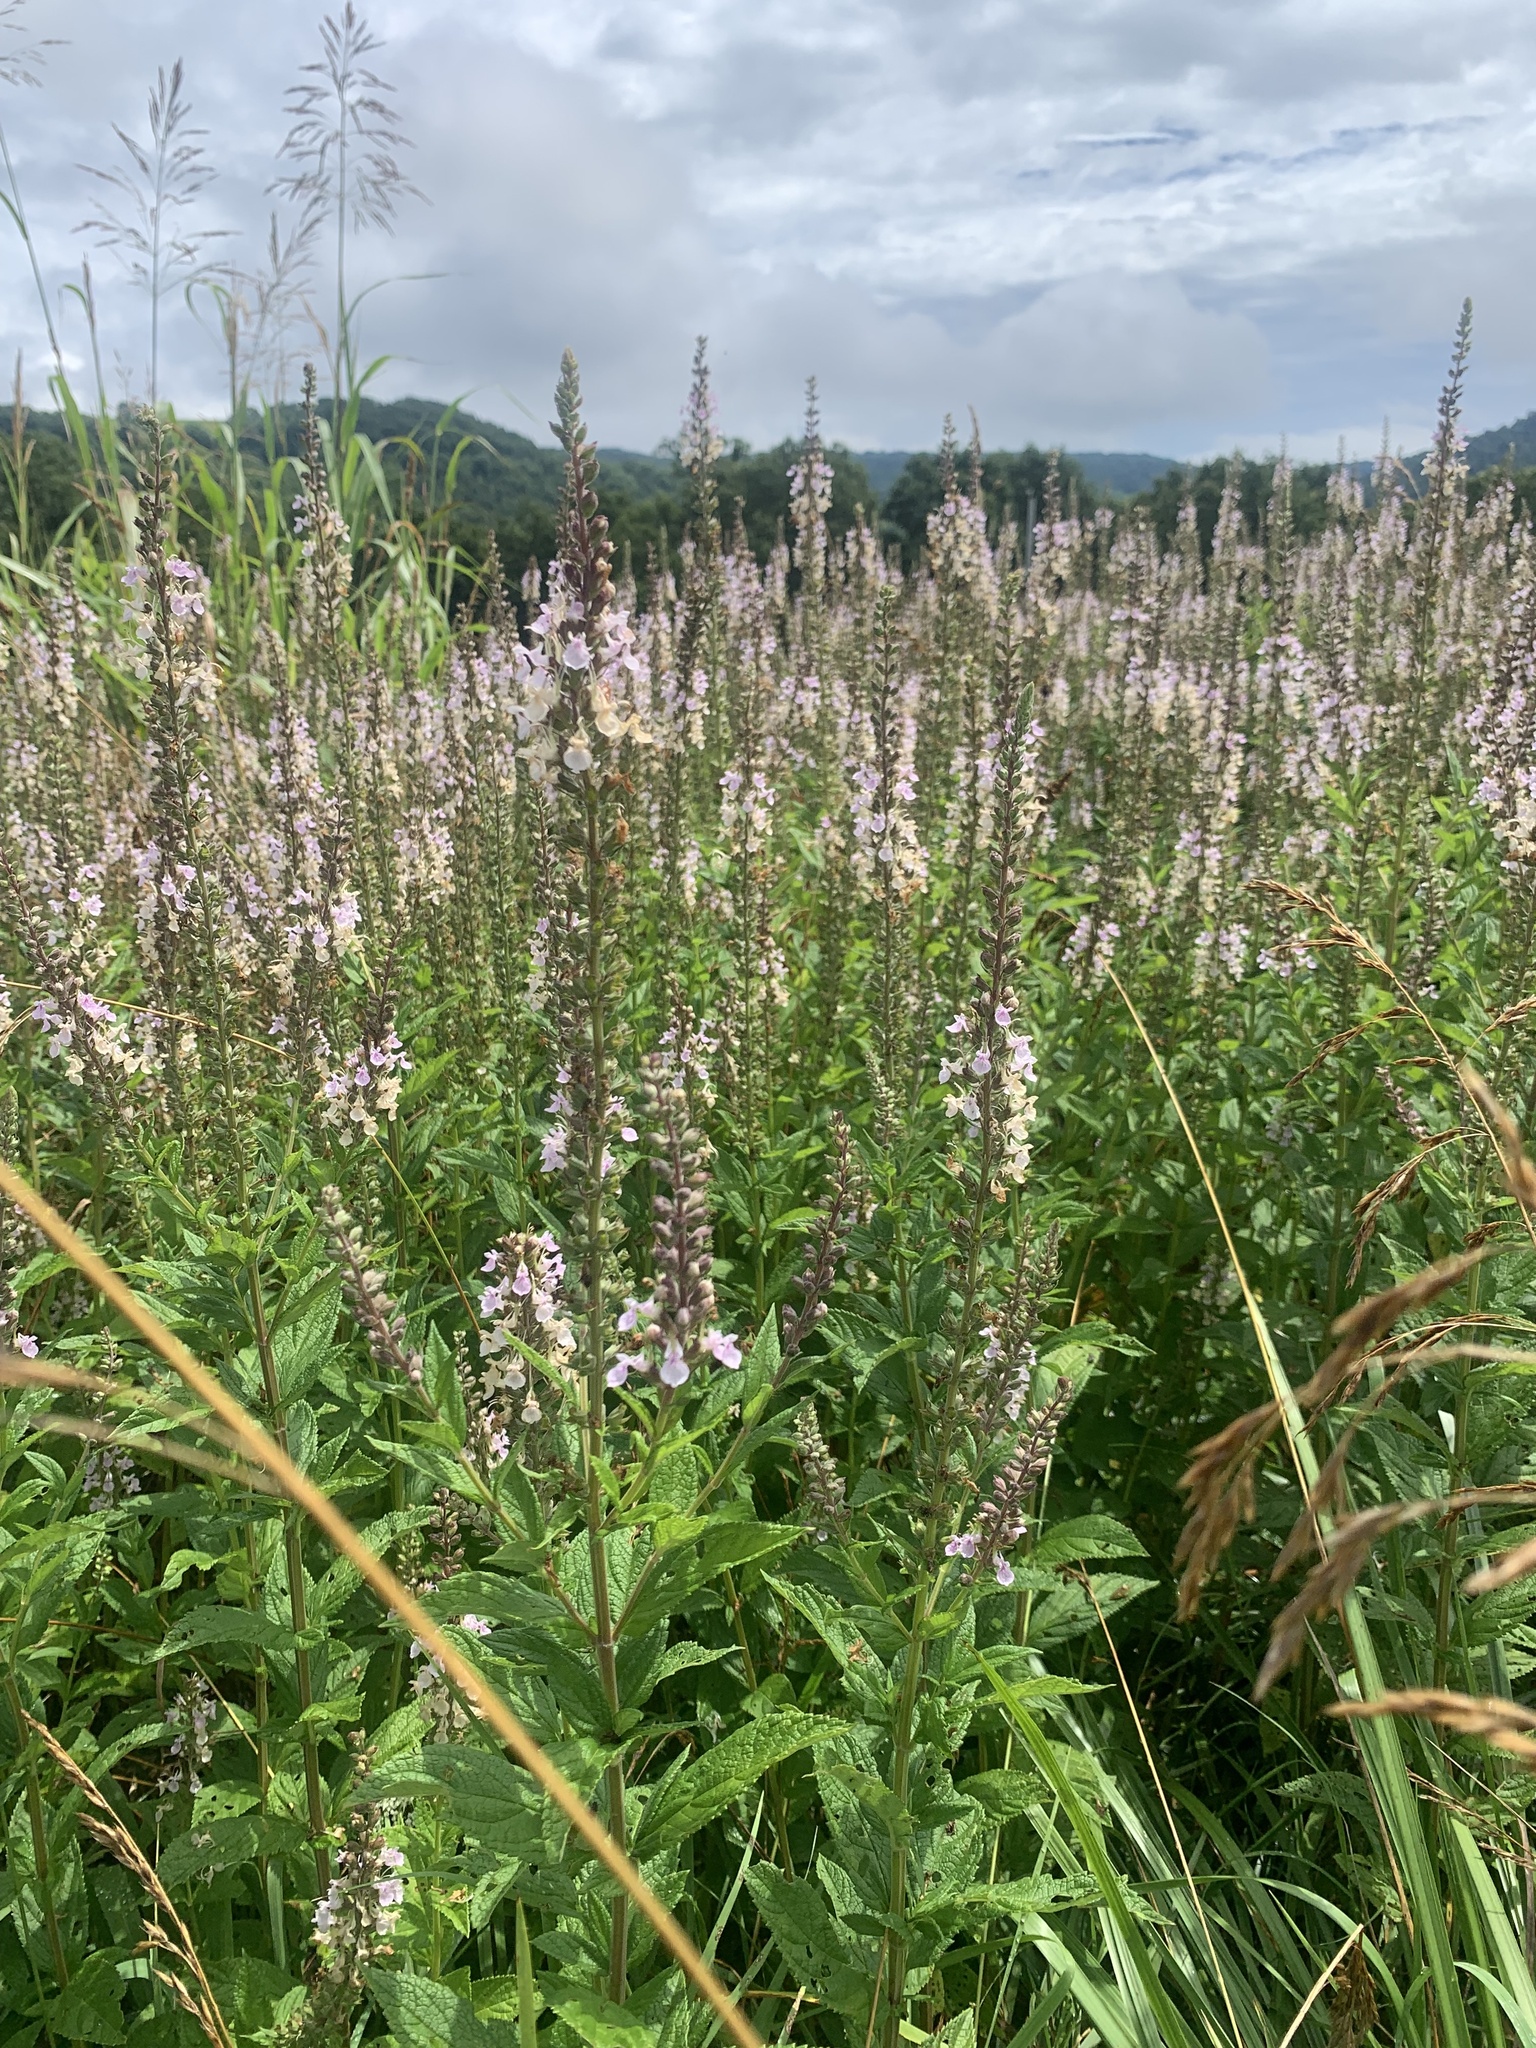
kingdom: Plantae
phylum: Tracheophyta
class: Magnoliopsida
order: Lamiales
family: Lamiaceae
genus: Teucrium
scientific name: Teucrium canadense
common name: American germander
